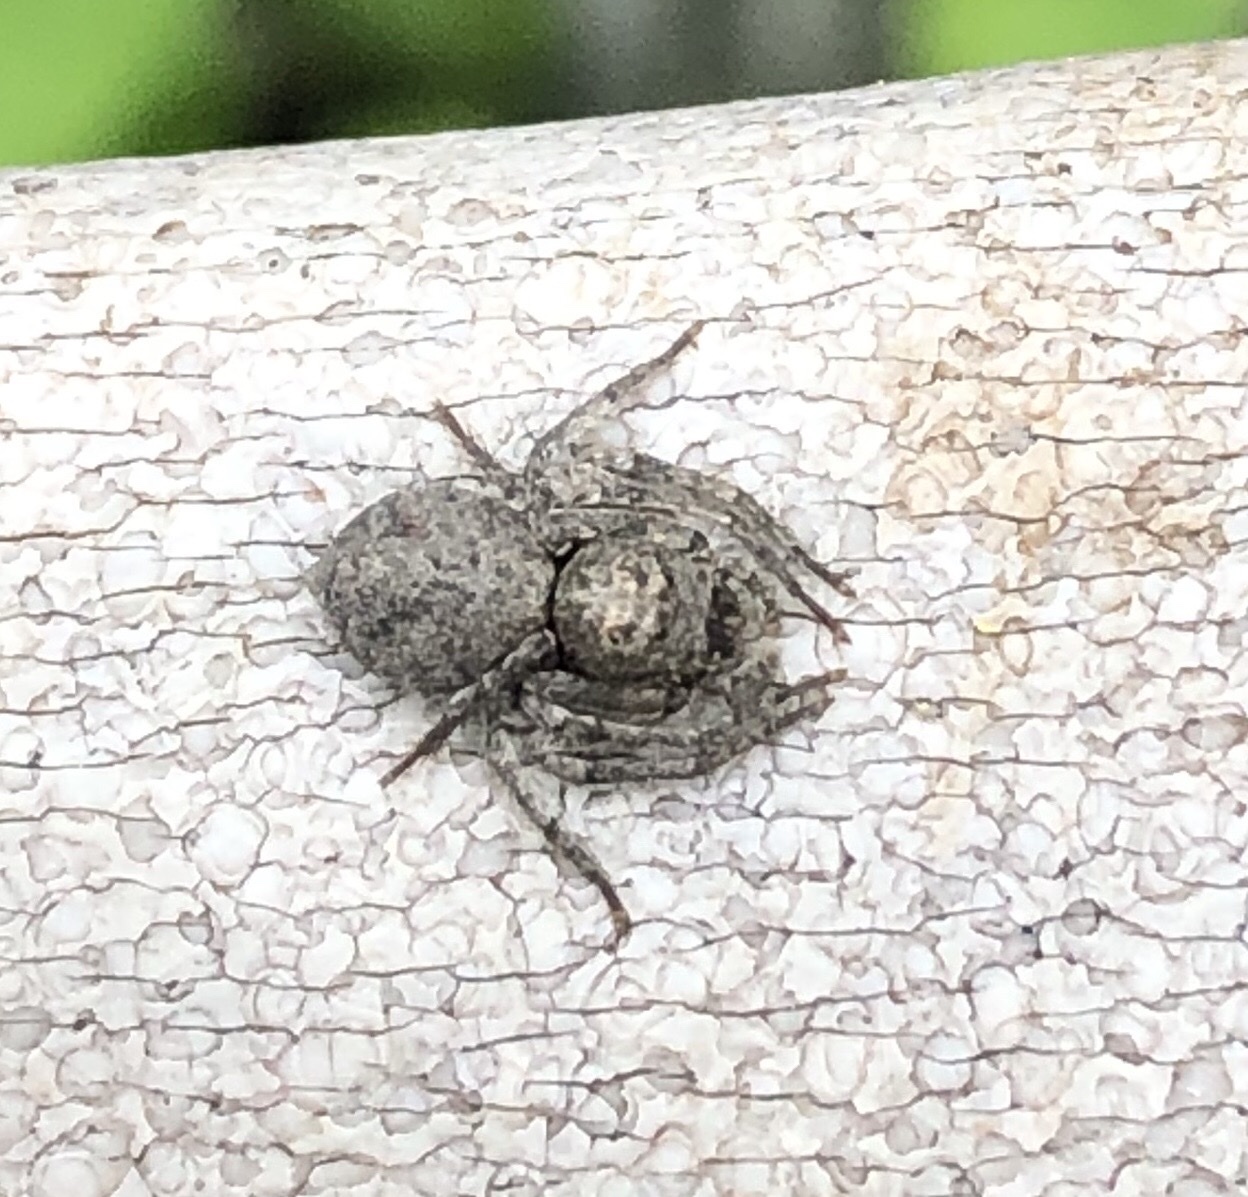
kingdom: Animalia
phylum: Arthropoda
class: Arachnida
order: Araneae
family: Oxyopidae
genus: Hamataliwa
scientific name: Hamataliwa grisea
